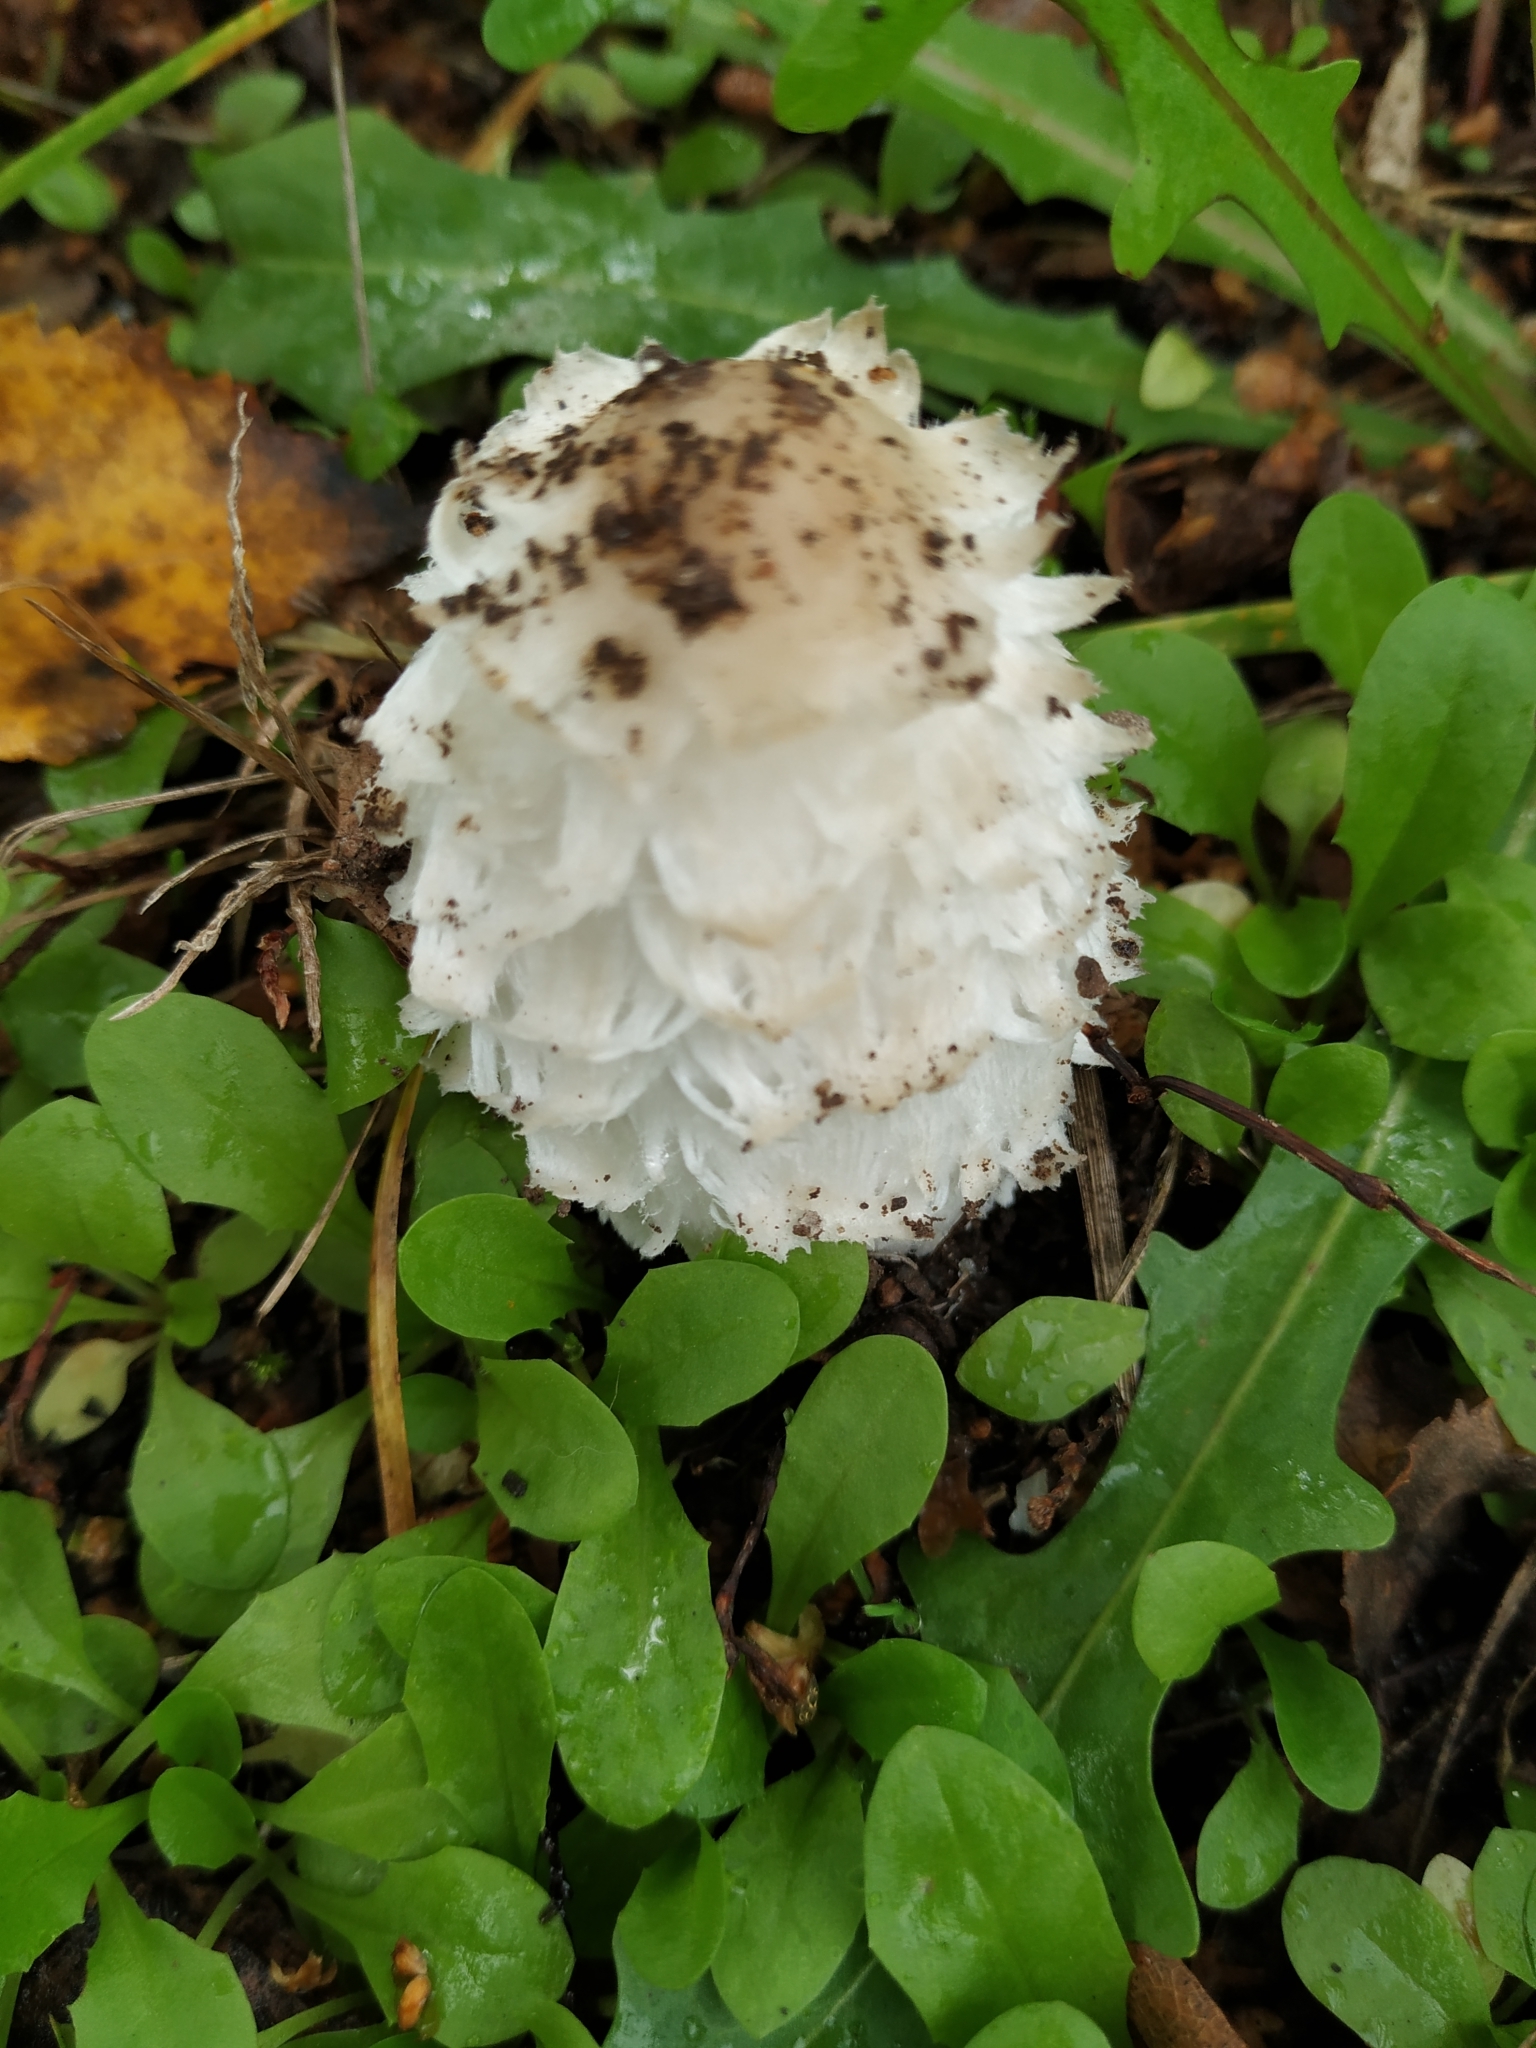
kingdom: Fungi
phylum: Basidiomycota
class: Agaricomycetes
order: Agaricales
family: Agaricaceae
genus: Coprinus
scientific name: Coprinus comatus
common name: Lawyer's wig
